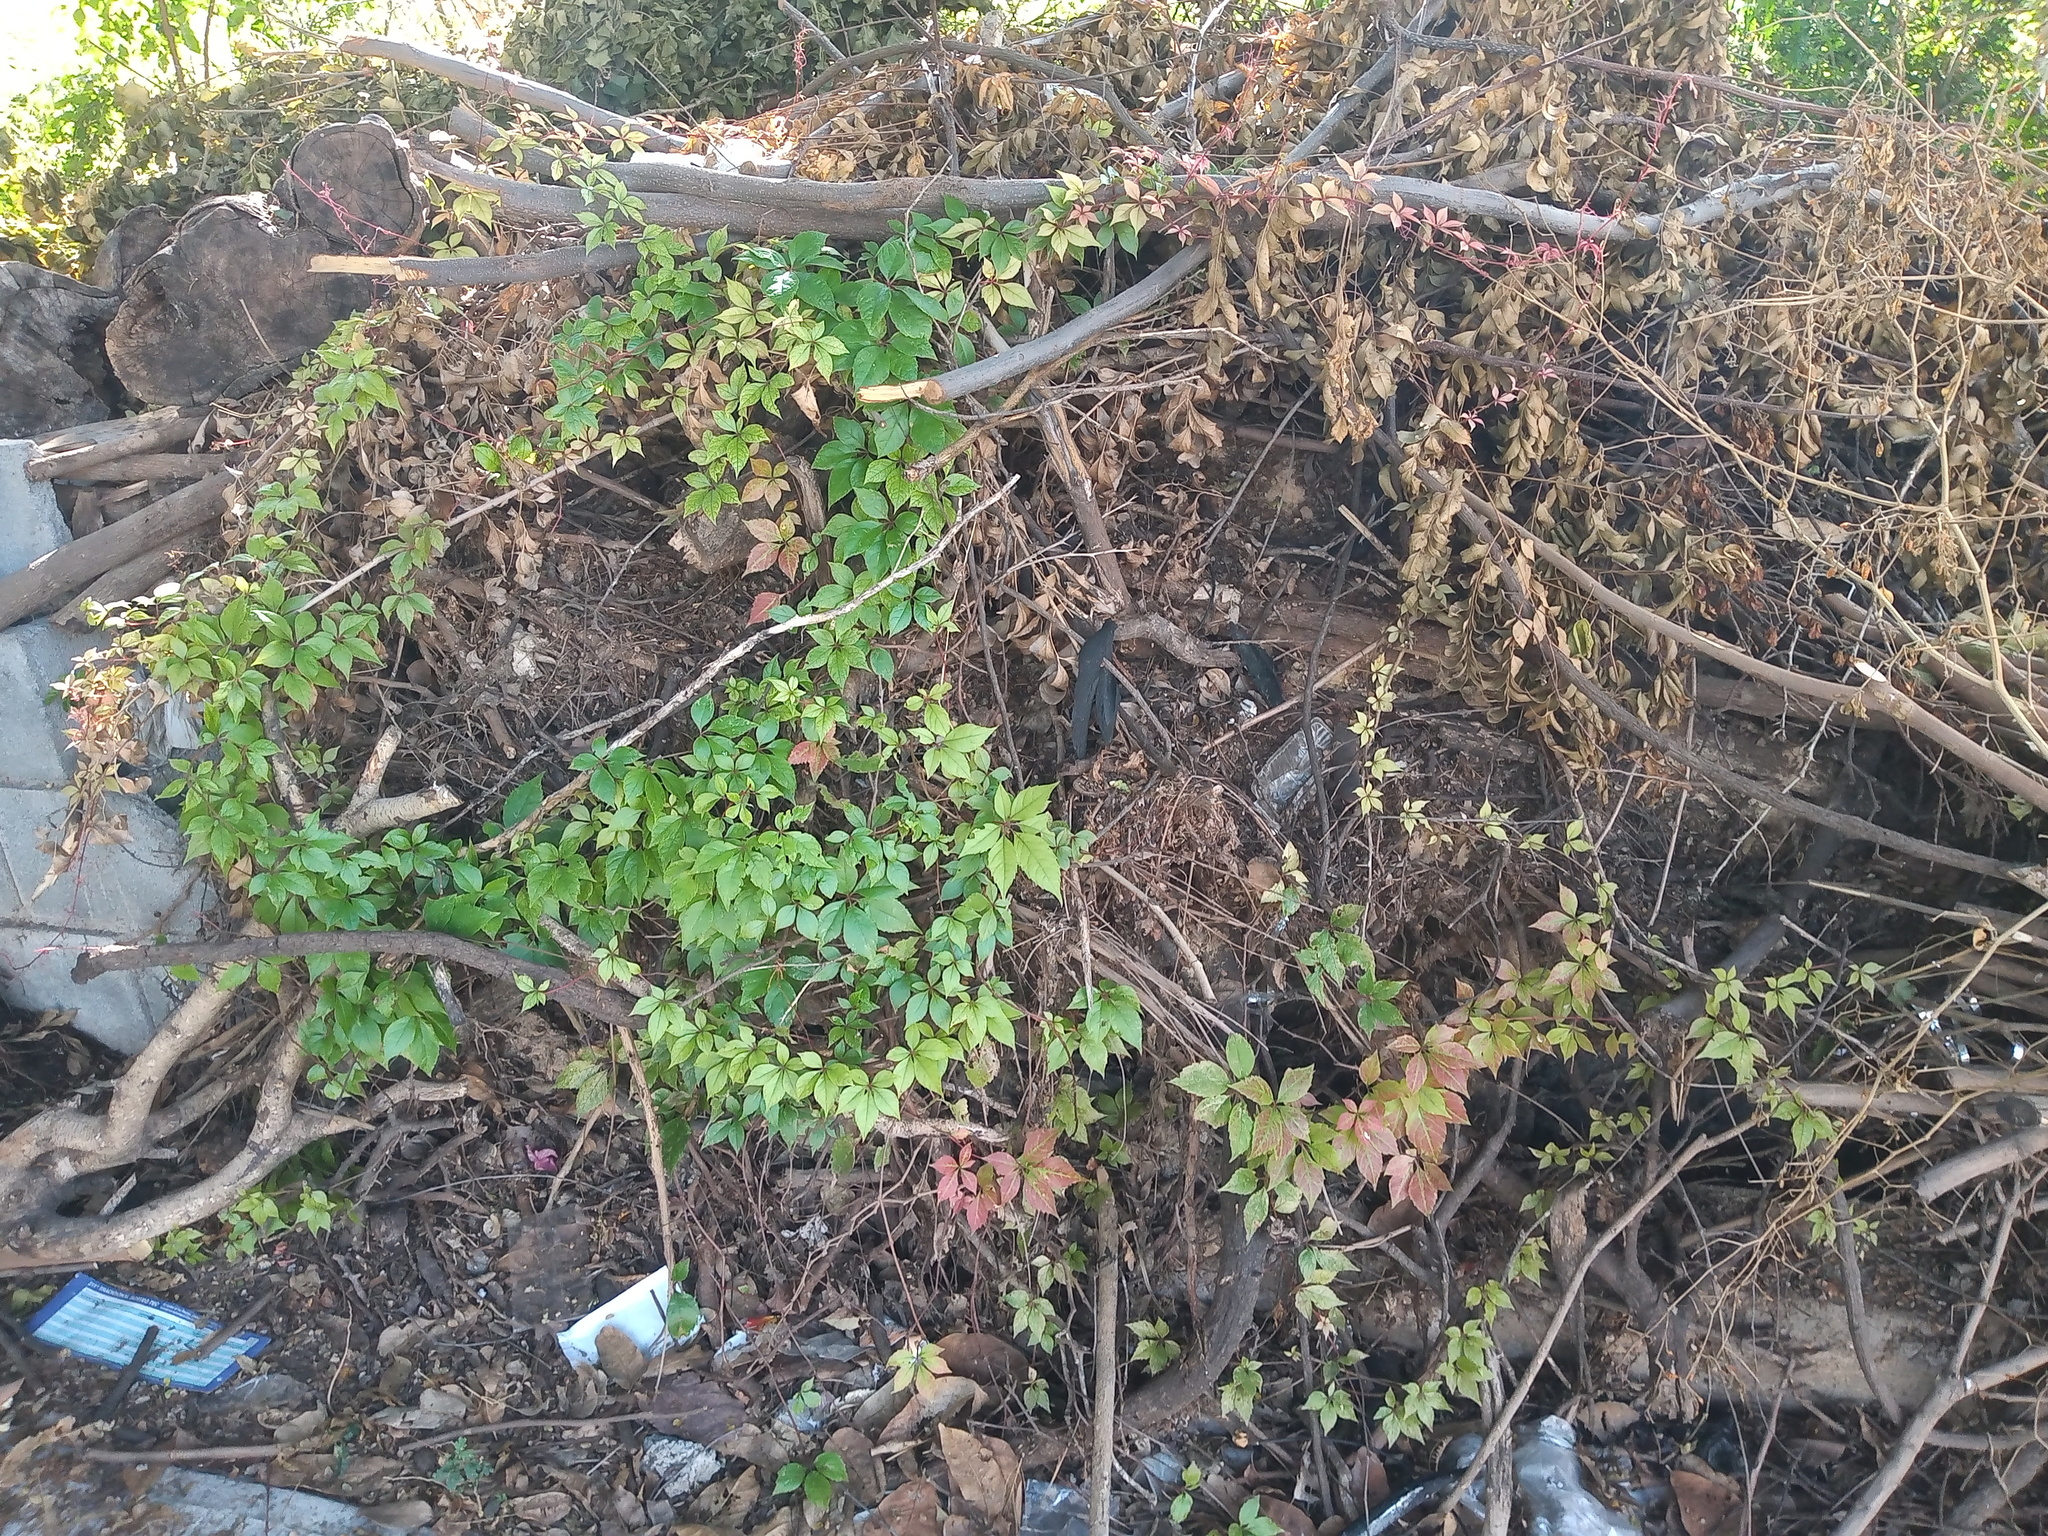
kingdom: Plantae
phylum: Tracheophyta
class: Magnoliopsida
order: Vitales
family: Vitaceae
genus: Parthenocissus
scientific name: Parthenocissus quinquefolia
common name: Virginia-creeper
